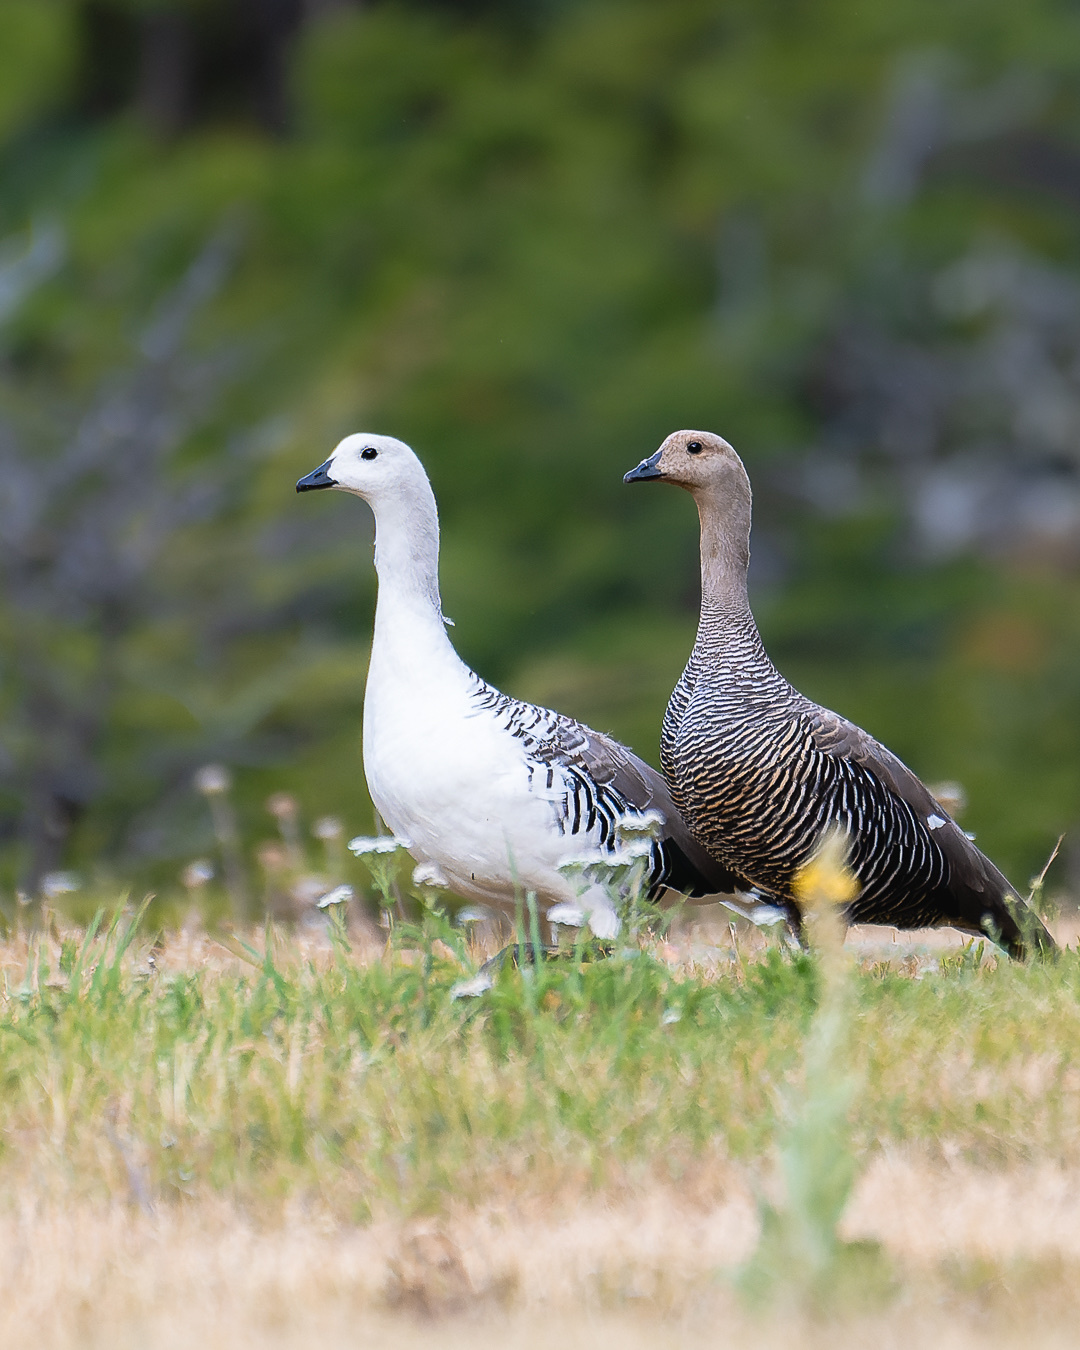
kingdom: Animalia
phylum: Chordata
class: Aves
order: Anseriformes
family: Anatidae
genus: Chloephaga
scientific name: Chloephaga picta
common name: Upland goose
